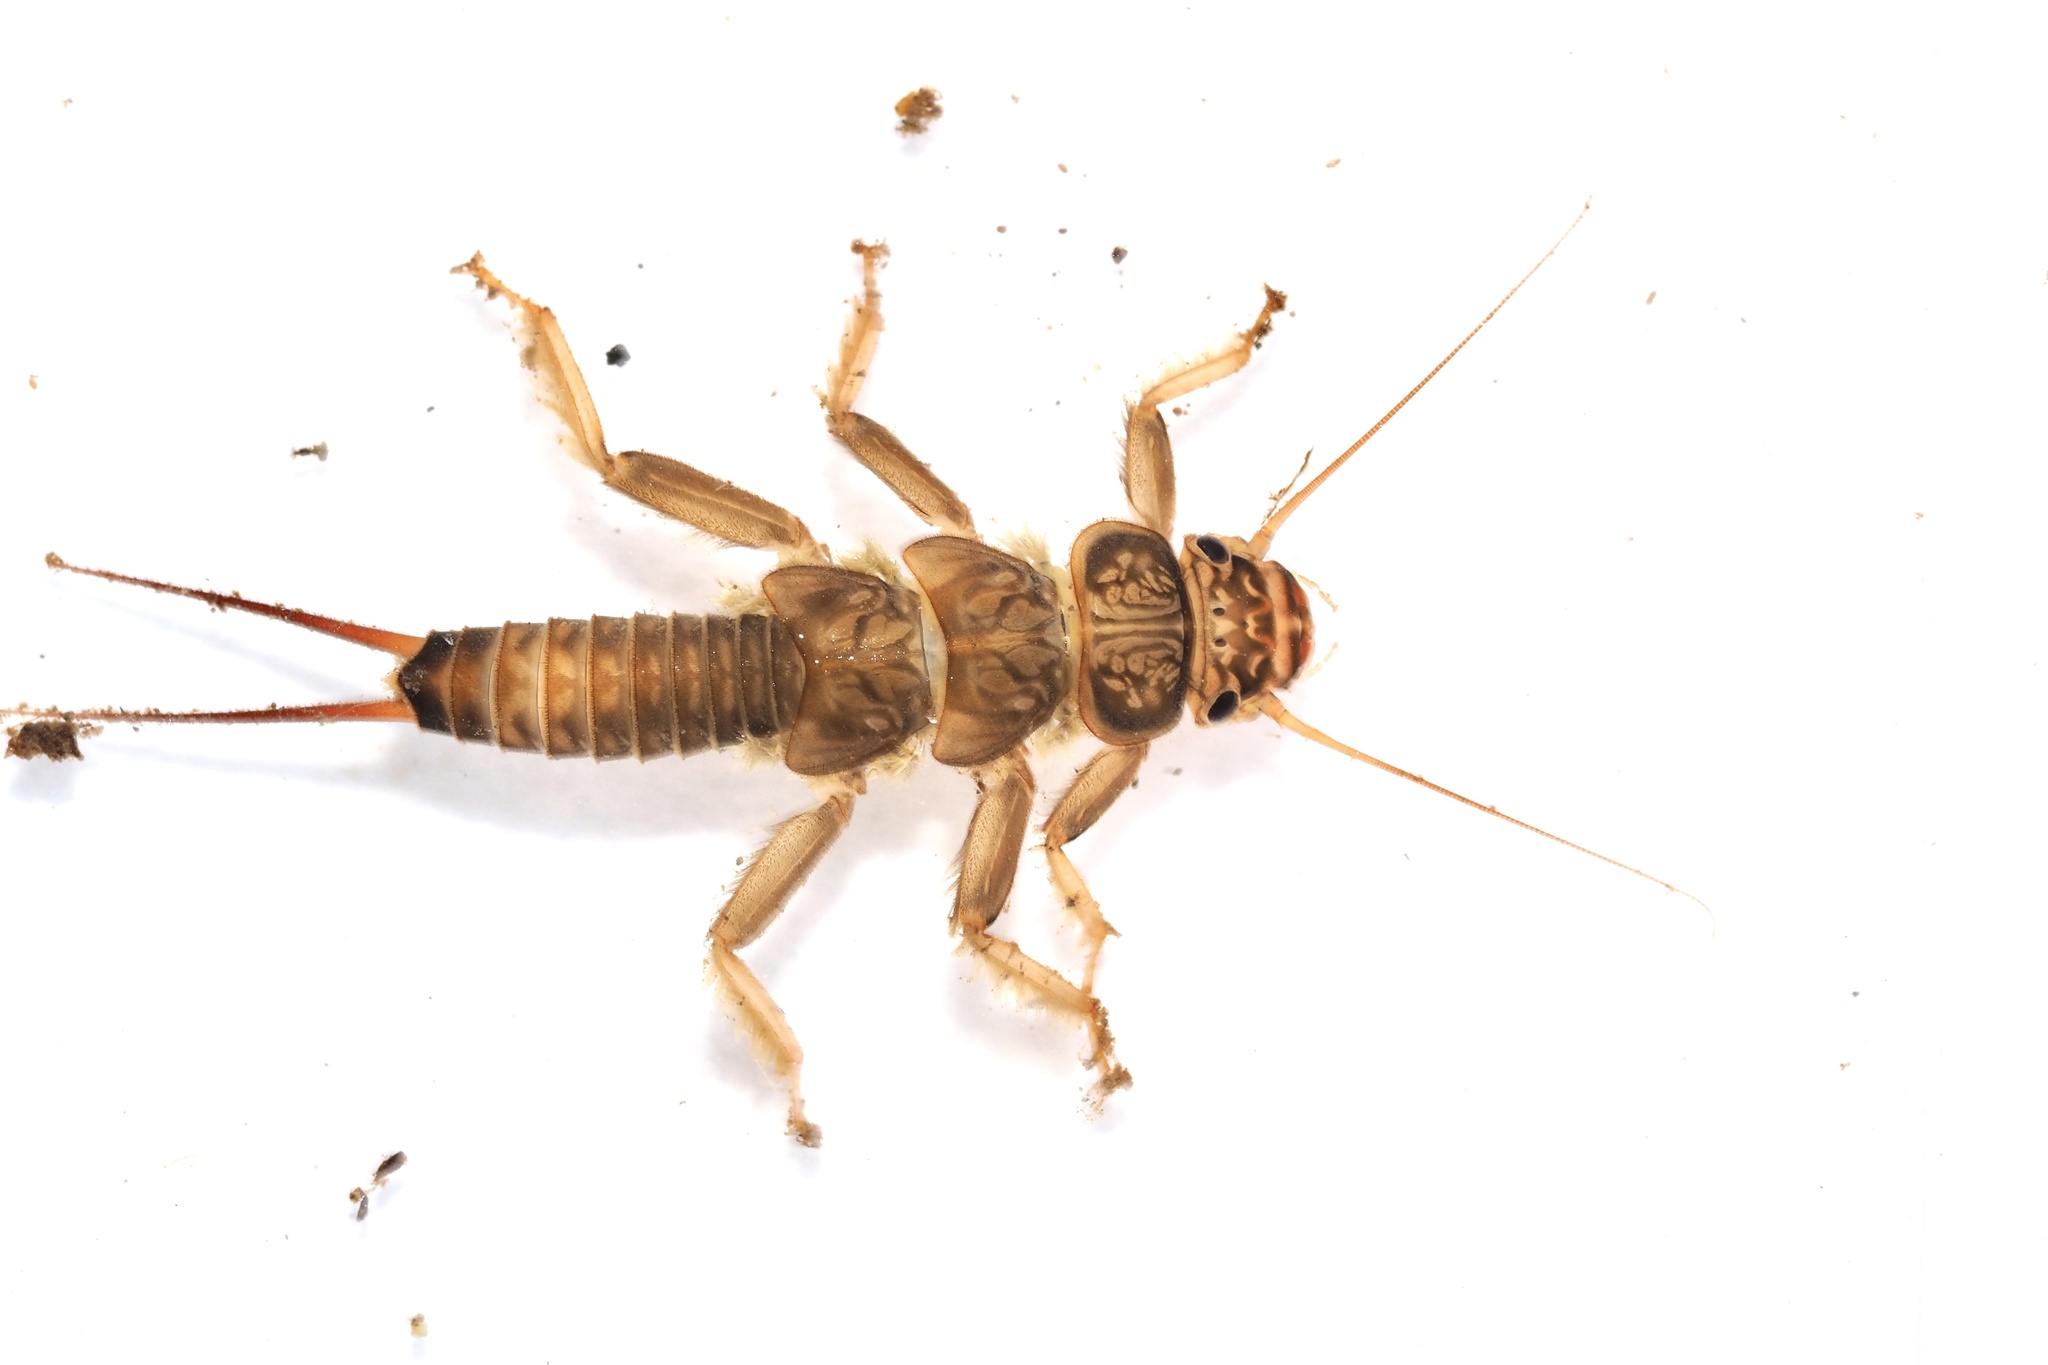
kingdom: Animalia
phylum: Arthropoda
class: Insecta
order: Plecoptera
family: Perlidae
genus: Oyamia
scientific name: Oyamia cryptomeria
